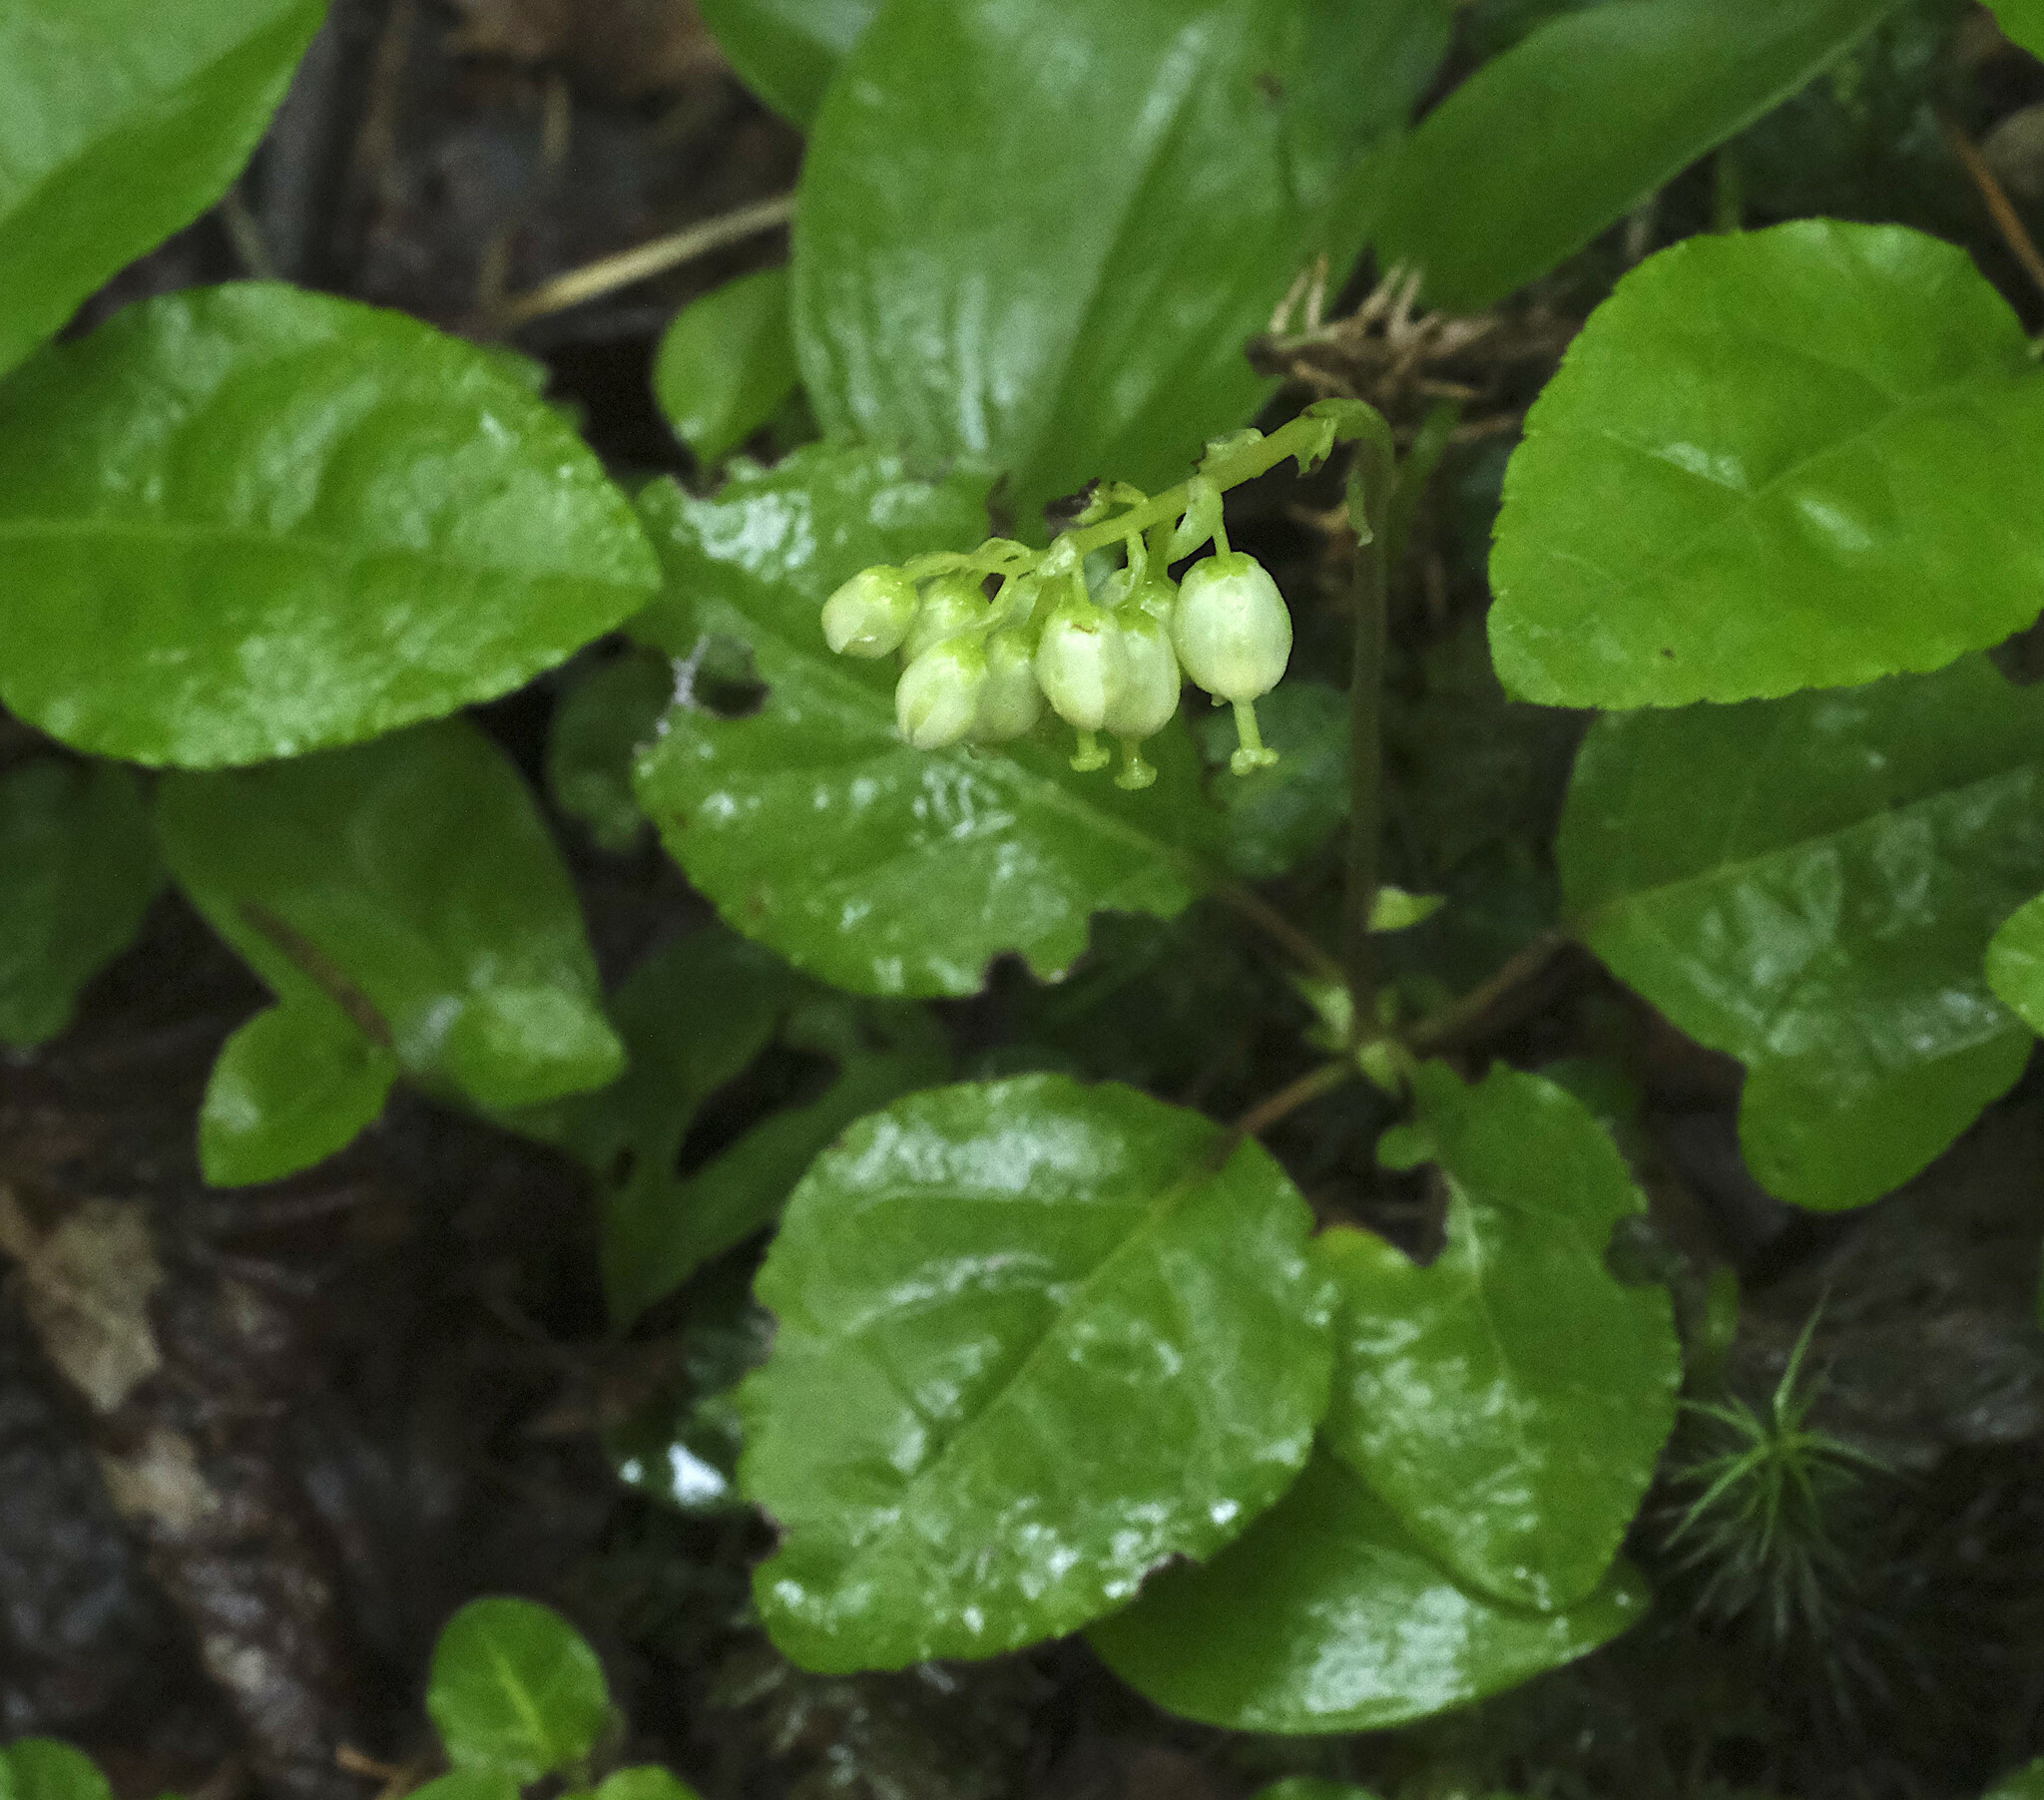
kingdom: Plantae
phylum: Tracheophyta
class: Magnoliopsida
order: Ericales
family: Ericaceae
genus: Orthilia
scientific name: Orthilia secunda
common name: One-sided orthilia
